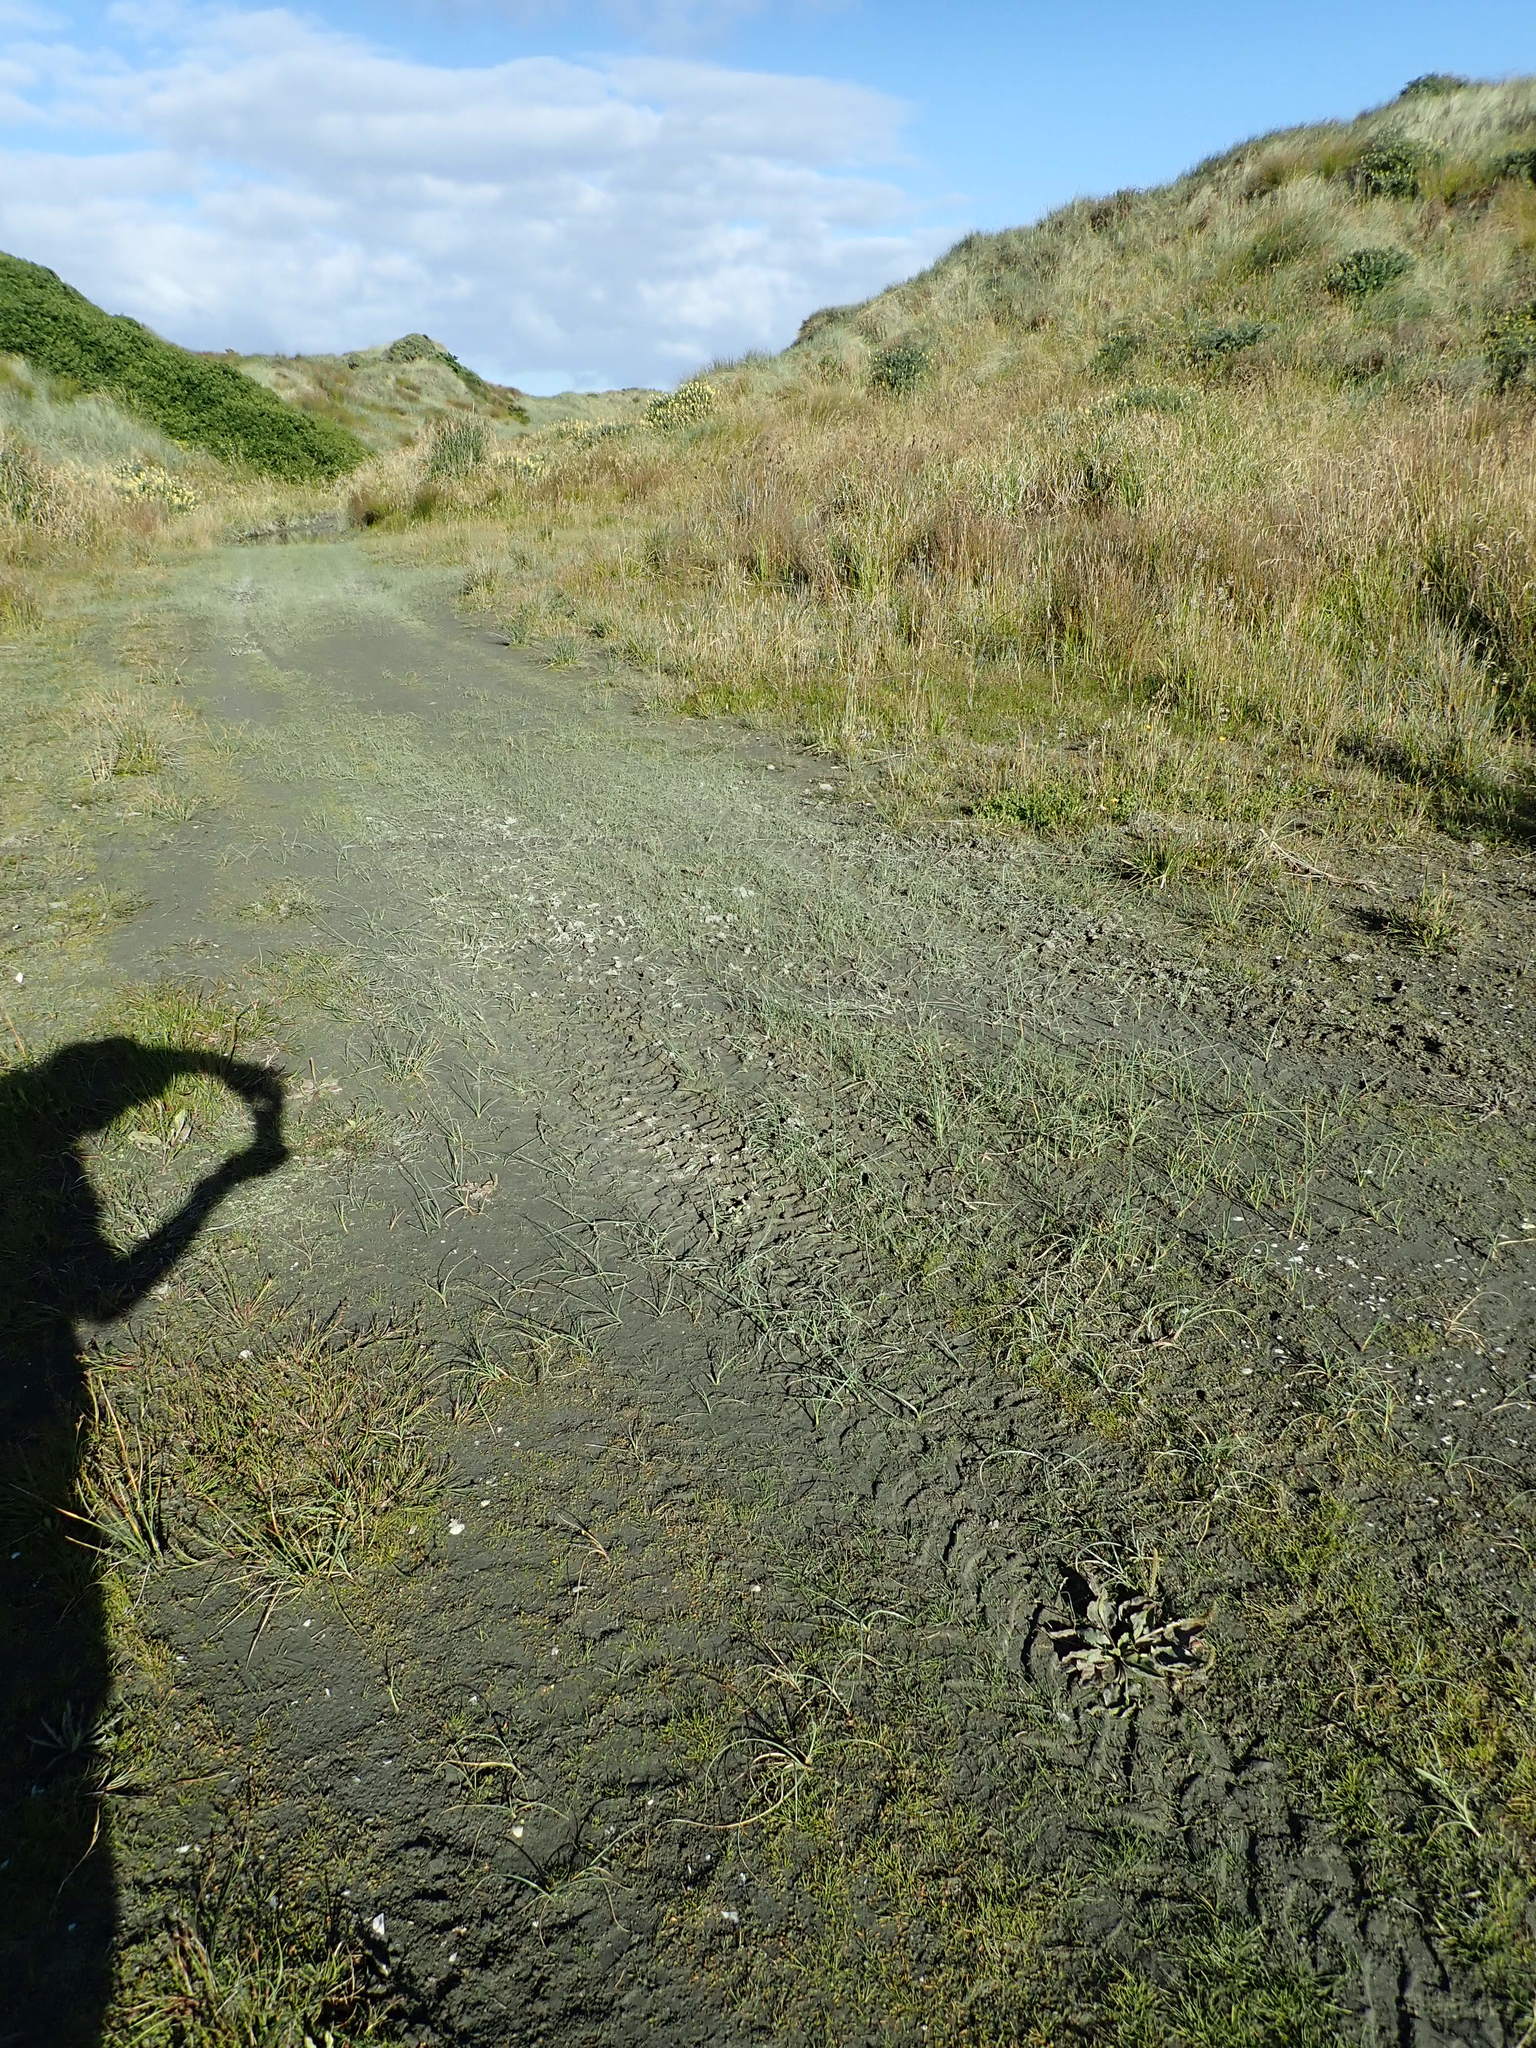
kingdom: Plantae
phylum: Tracheophyta
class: Liliopsida
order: Poales
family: Cyperaceae
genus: Schoenoplectus
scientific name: Schoenoplectus pungens
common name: Sharp club-rush
